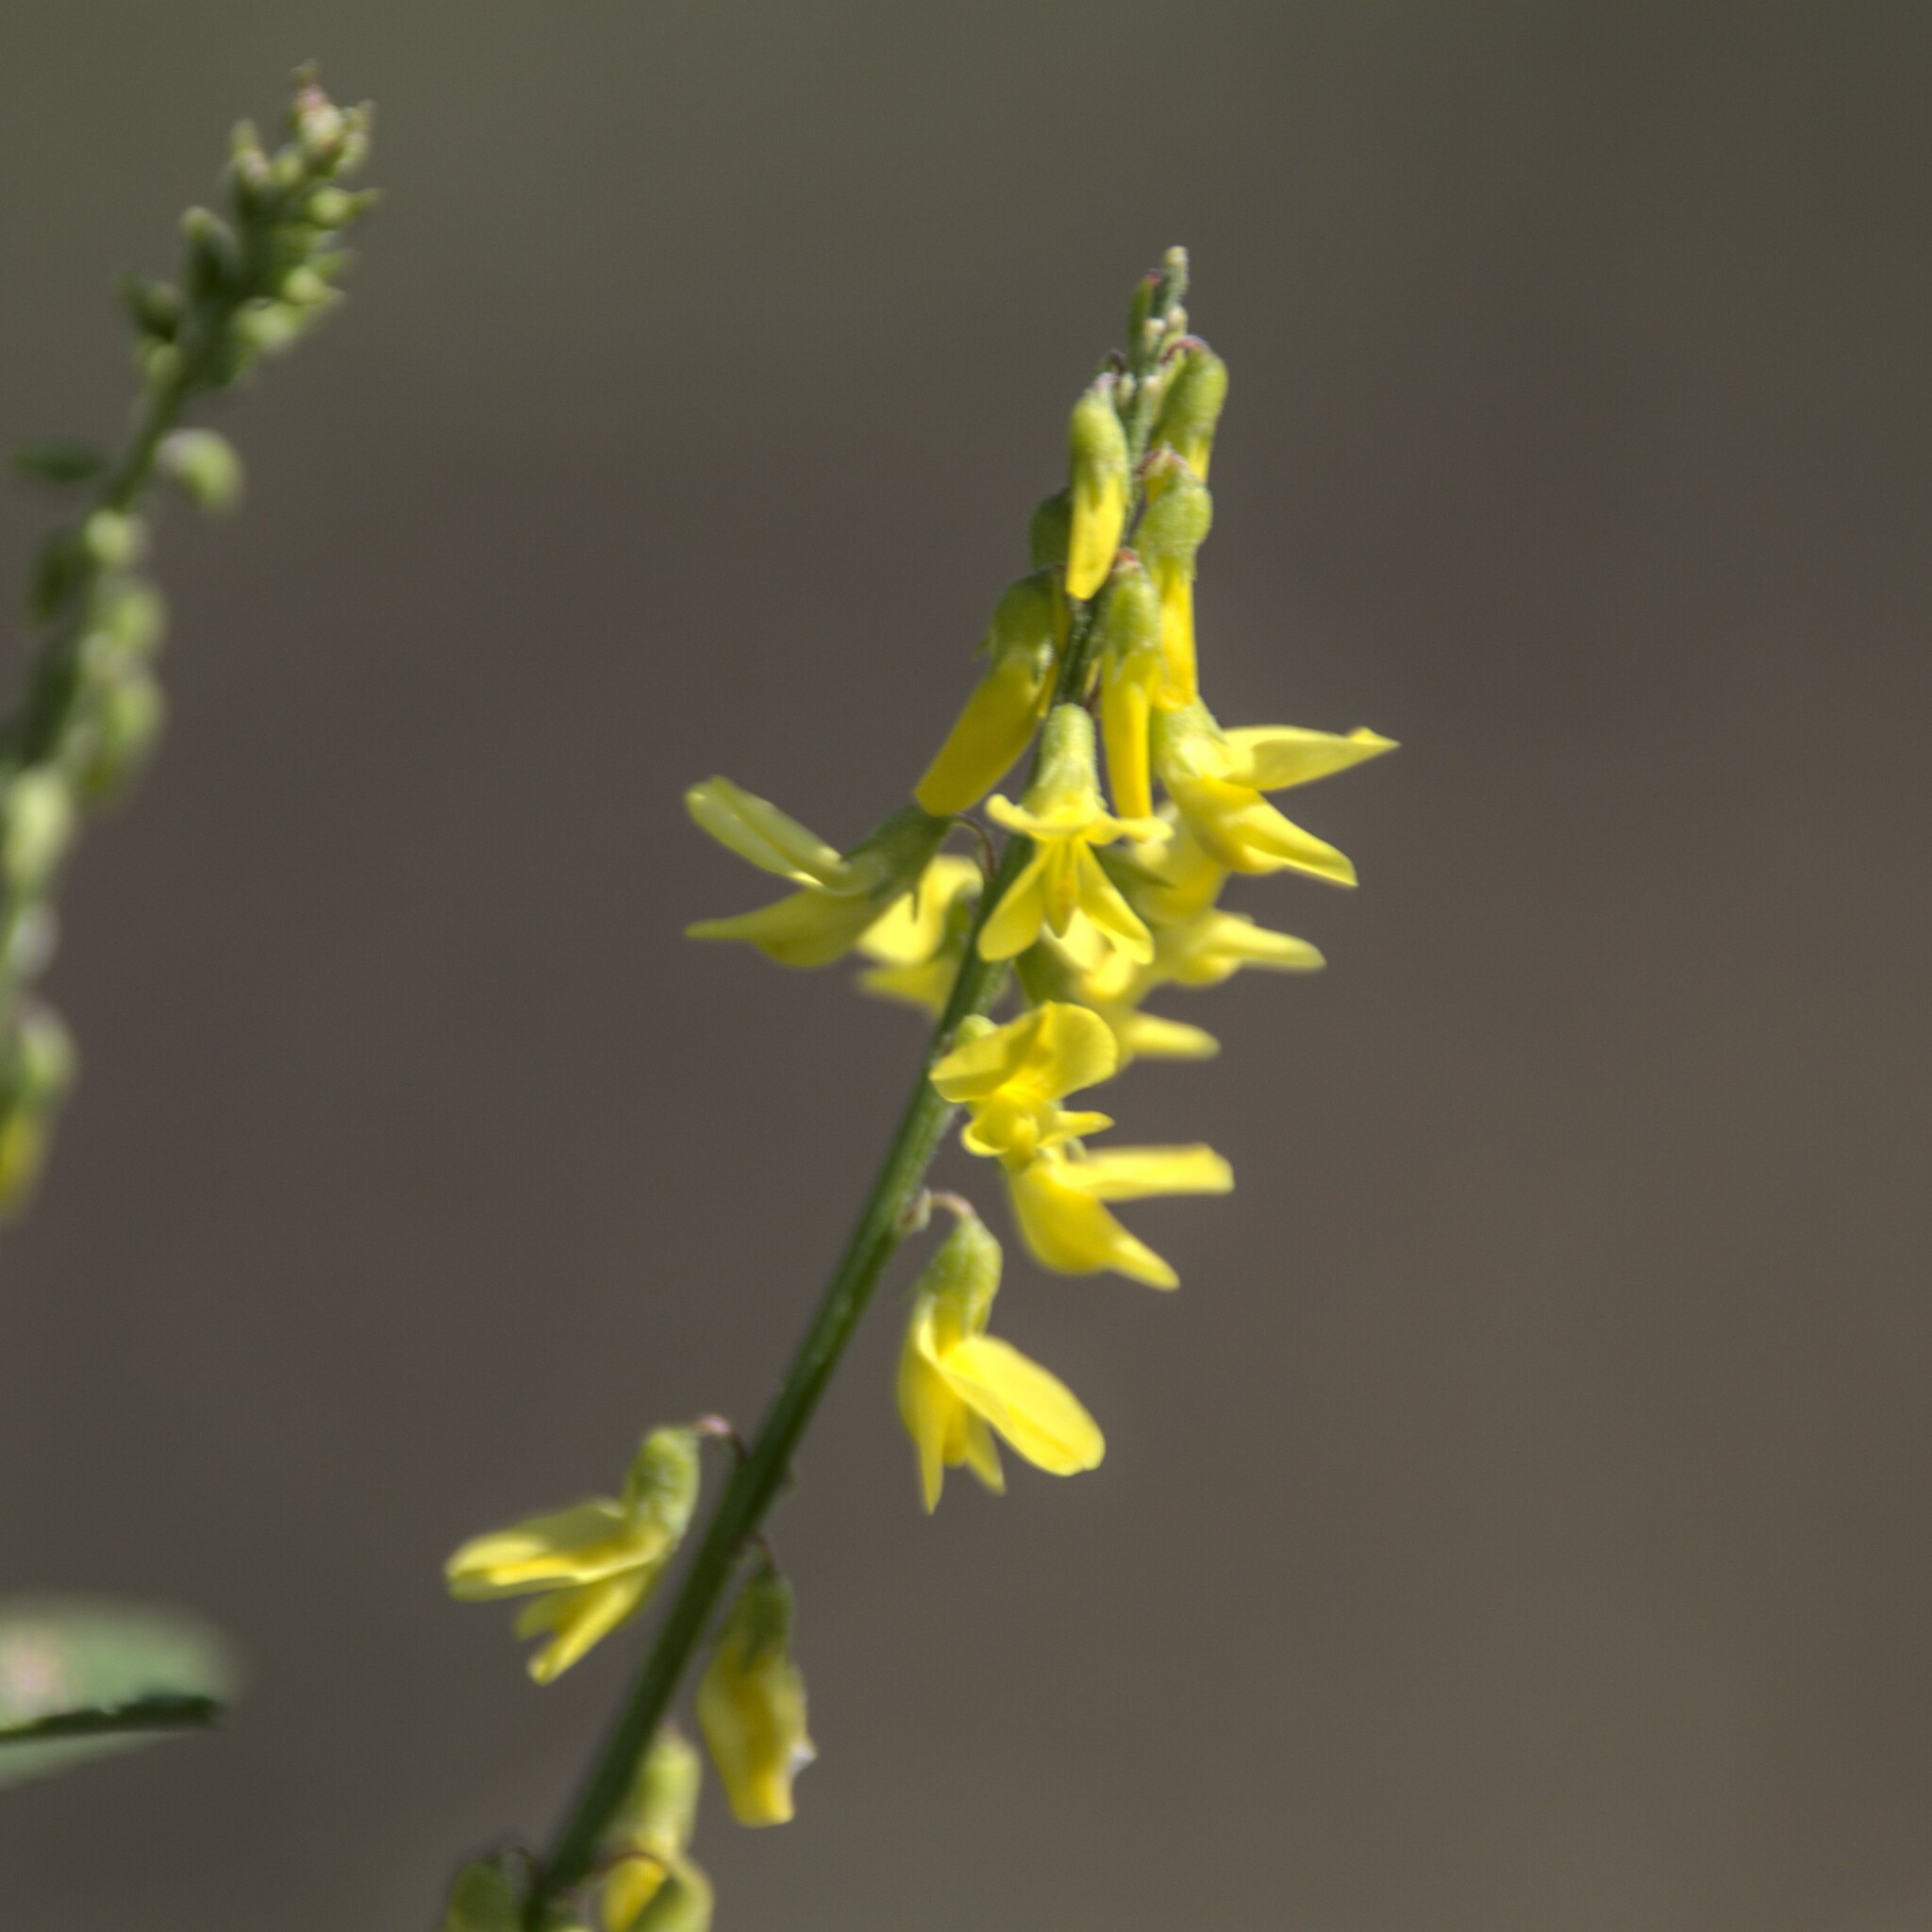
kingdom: Plantae
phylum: Tracheophyta
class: Magnoliopsida
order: Fabales
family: Fabaceae
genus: Melilotus
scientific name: Melilotus officinalis
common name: Sweetclover
